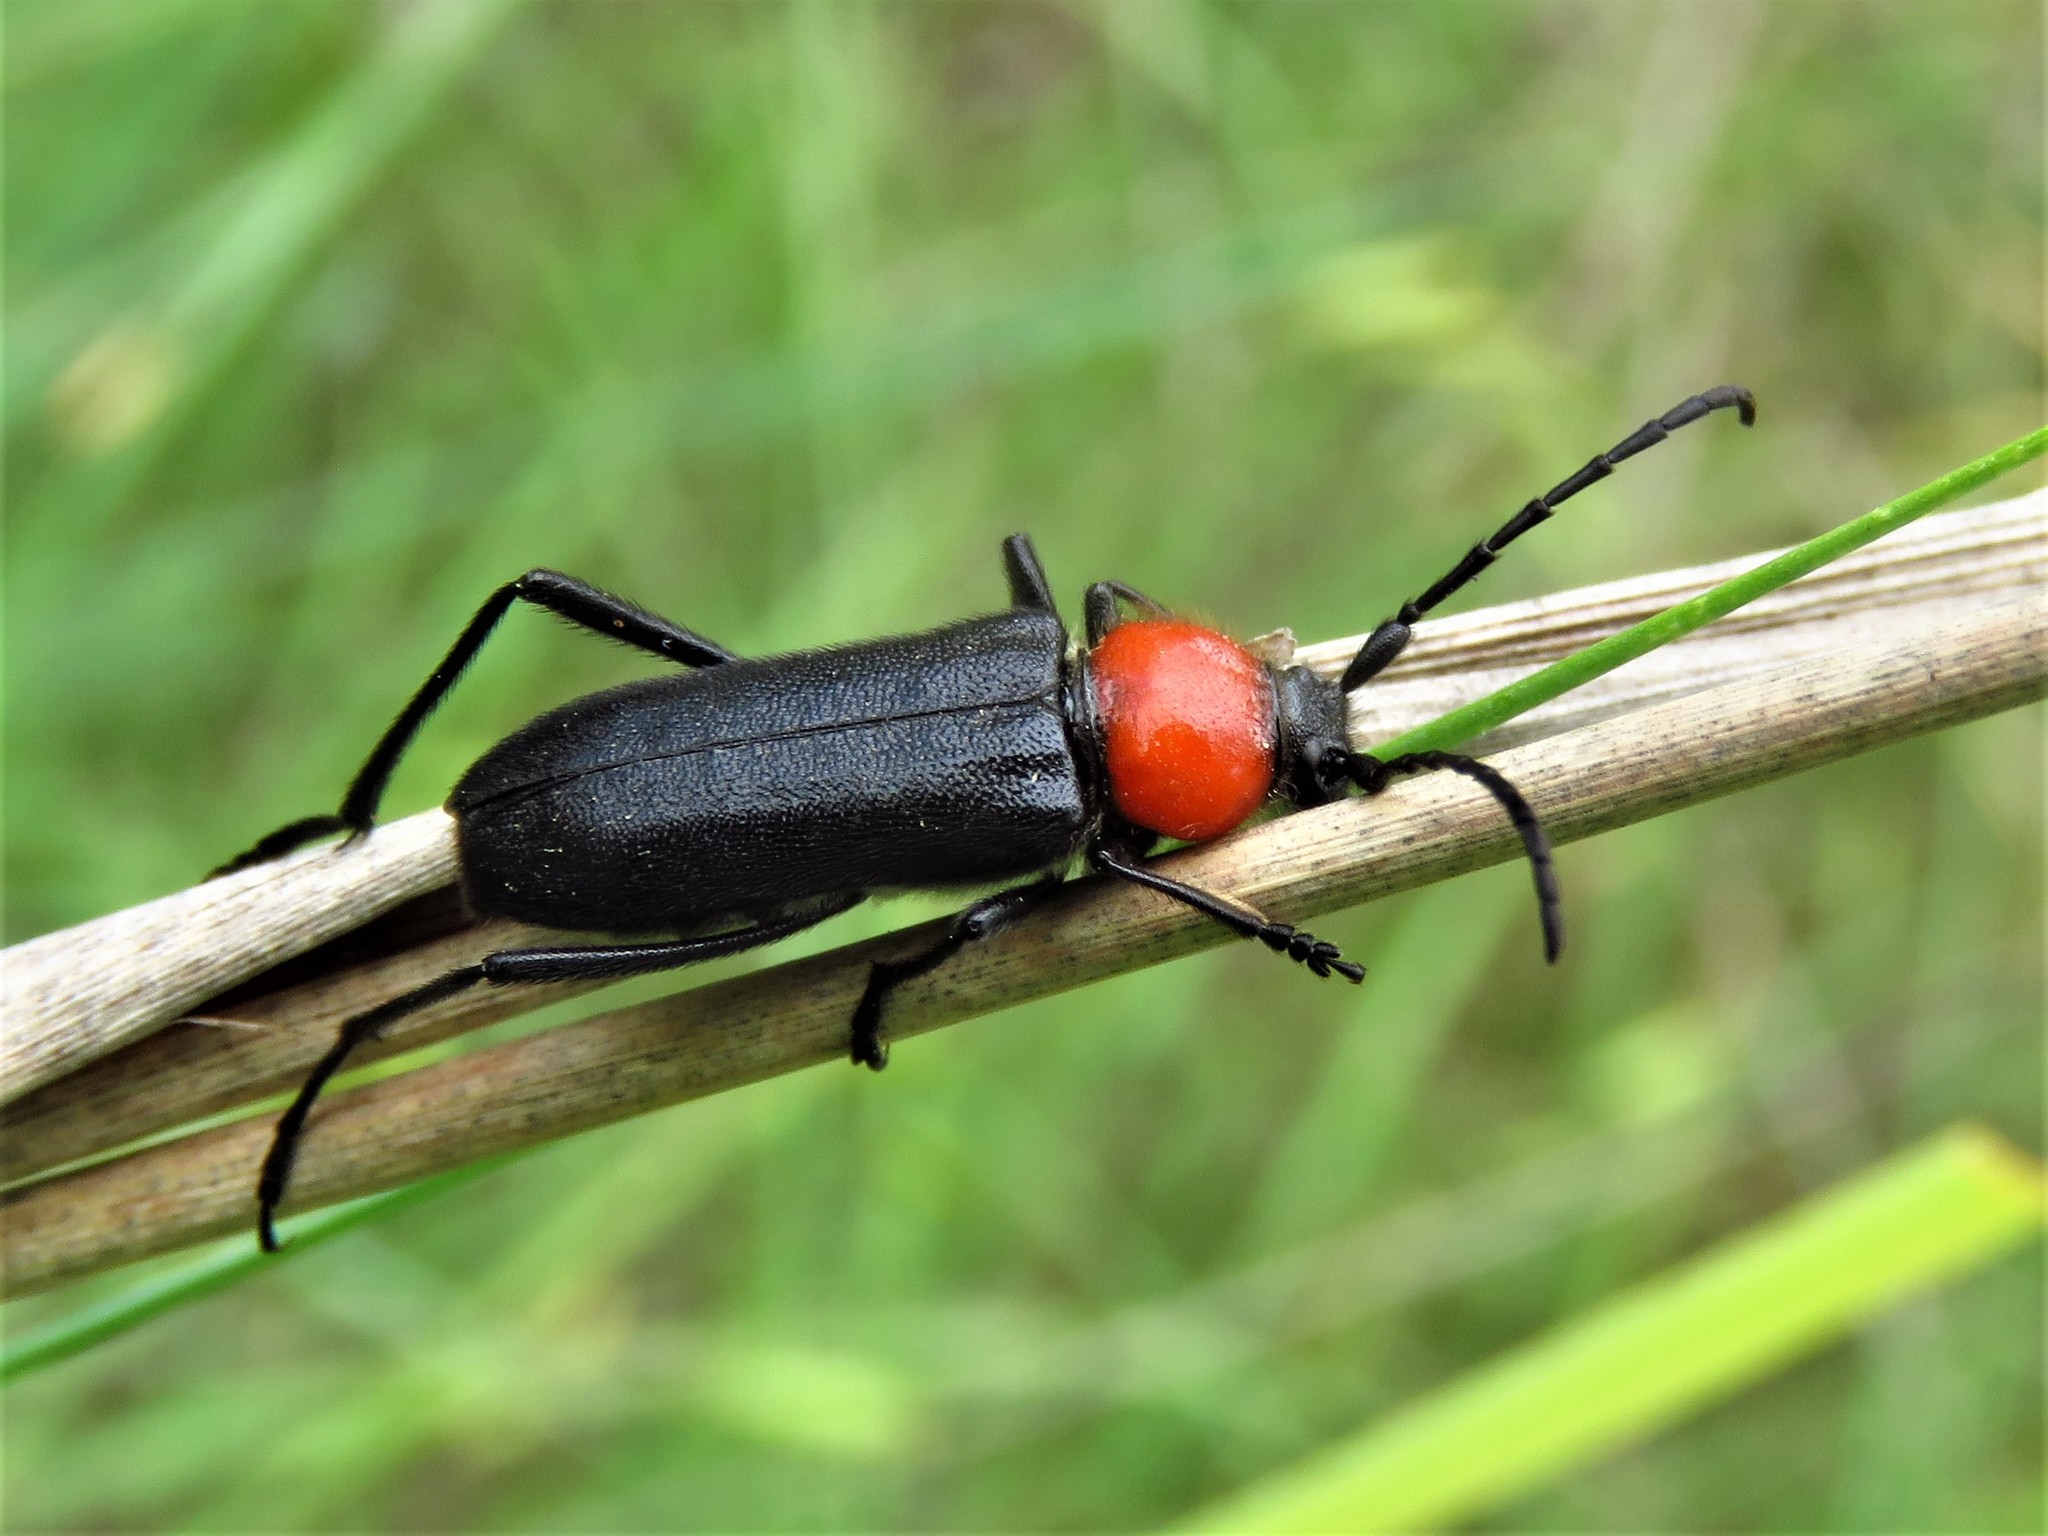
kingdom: Animalia
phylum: Arthropoda
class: Insecta
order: Coleoptera
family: Cerambycidae
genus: Batyle
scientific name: Batyle ignicollis
